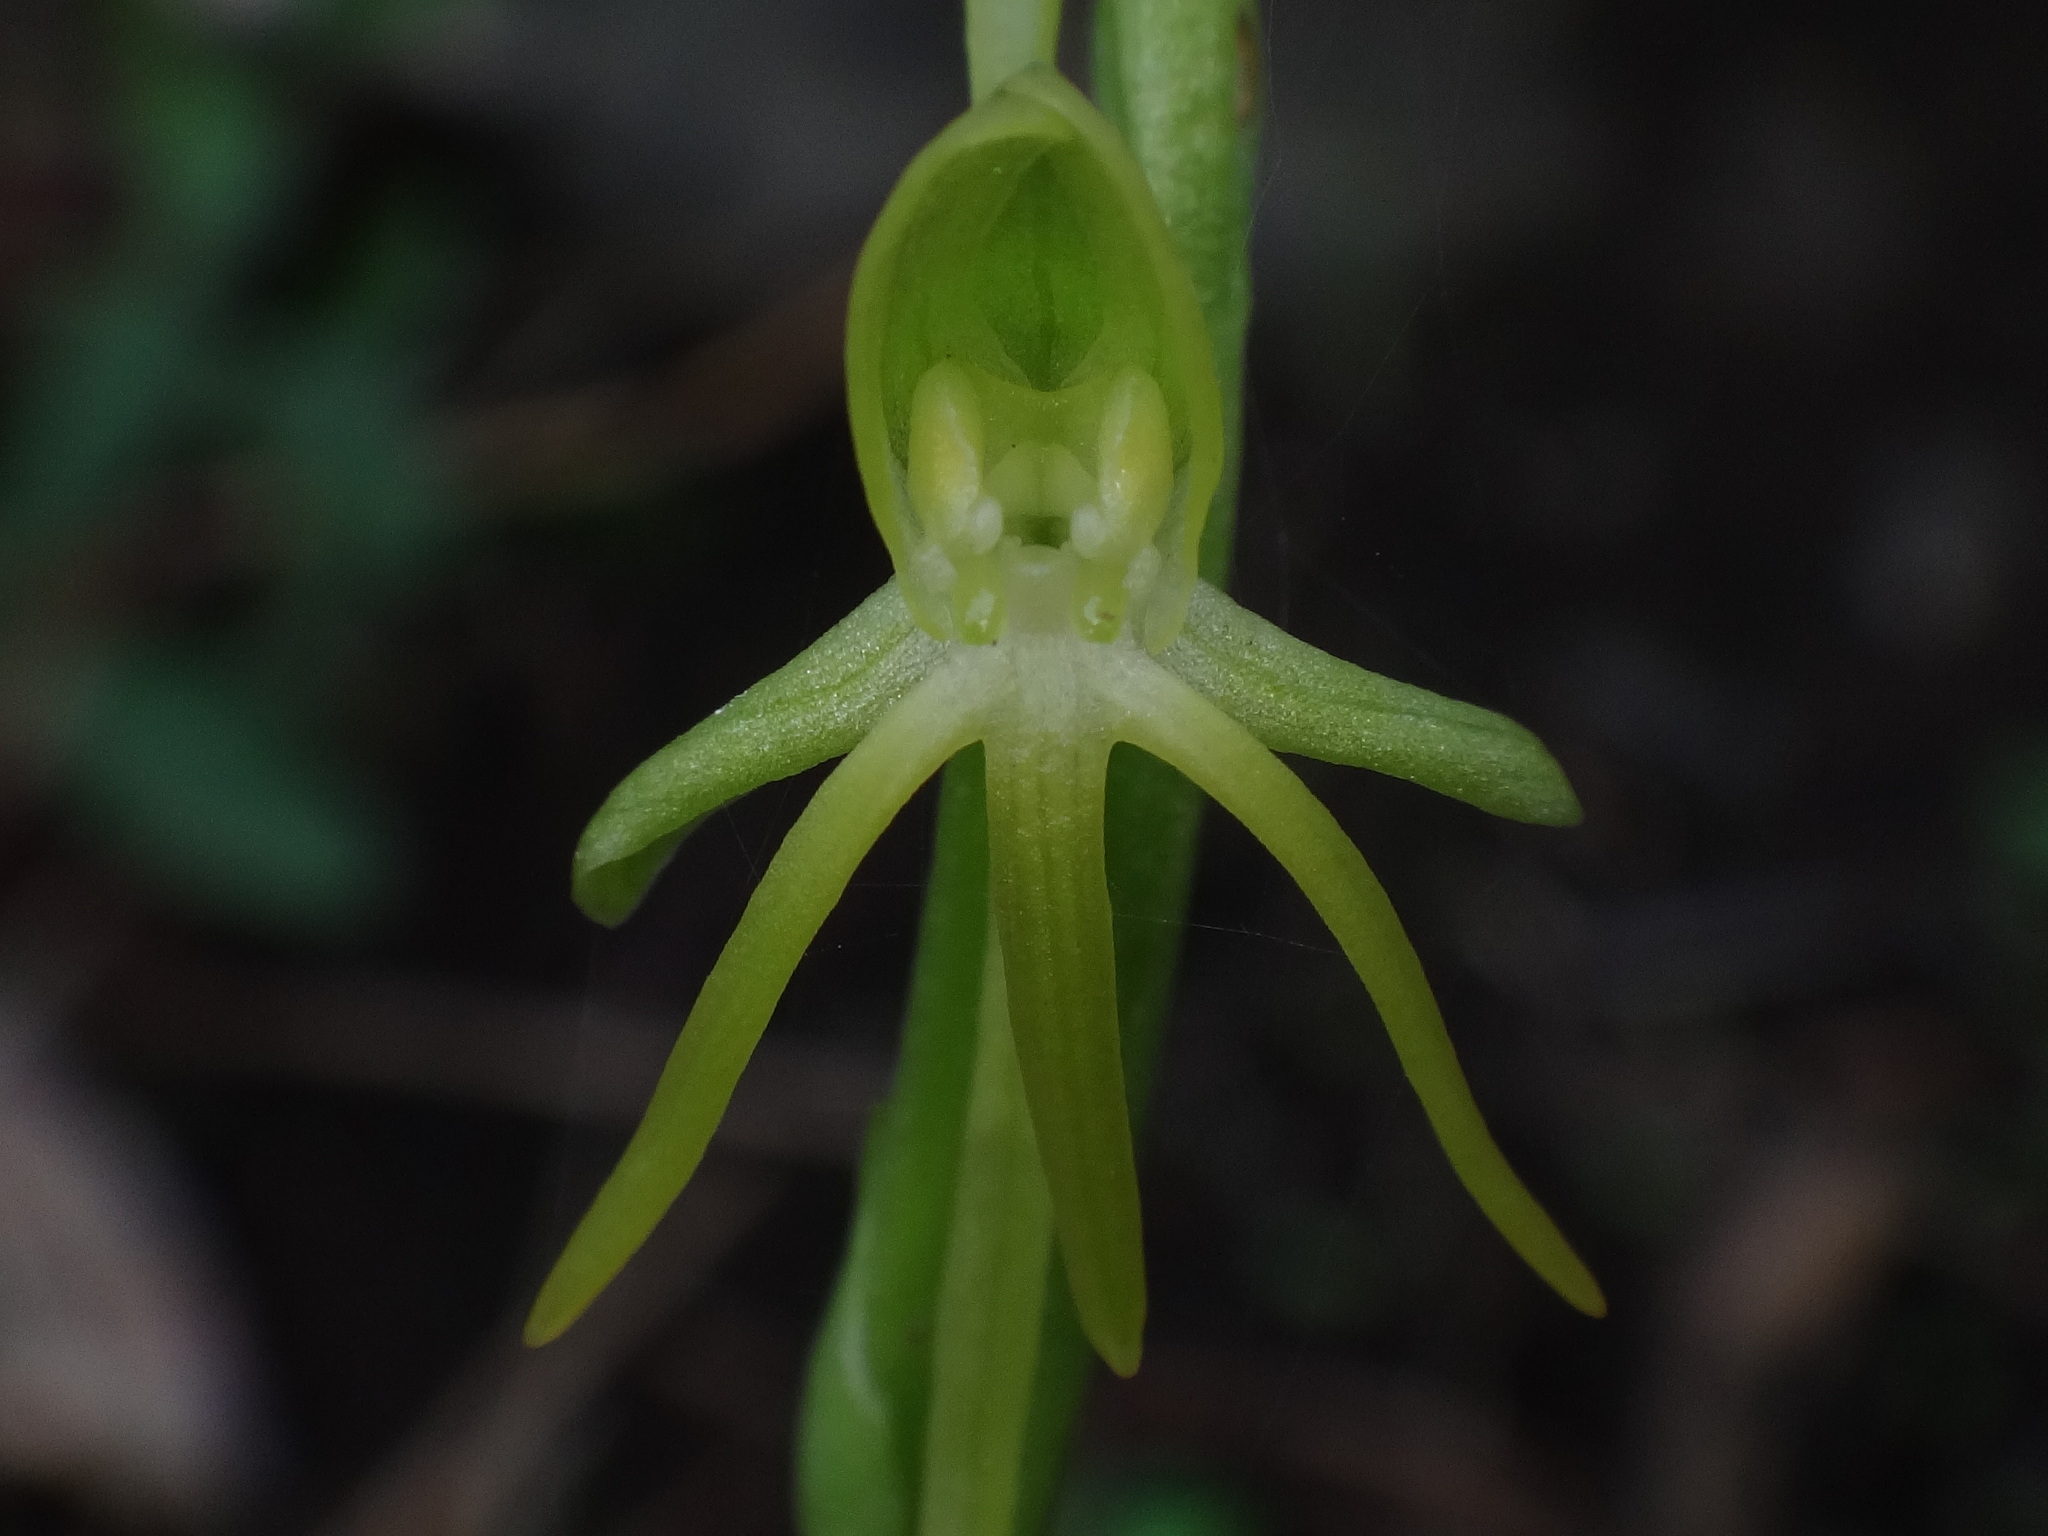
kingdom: Plantae
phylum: Tracheophyta
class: Liliopsida
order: Asparagales
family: Orchidaceae
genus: Habenaria
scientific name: Habenaria tridactylites
